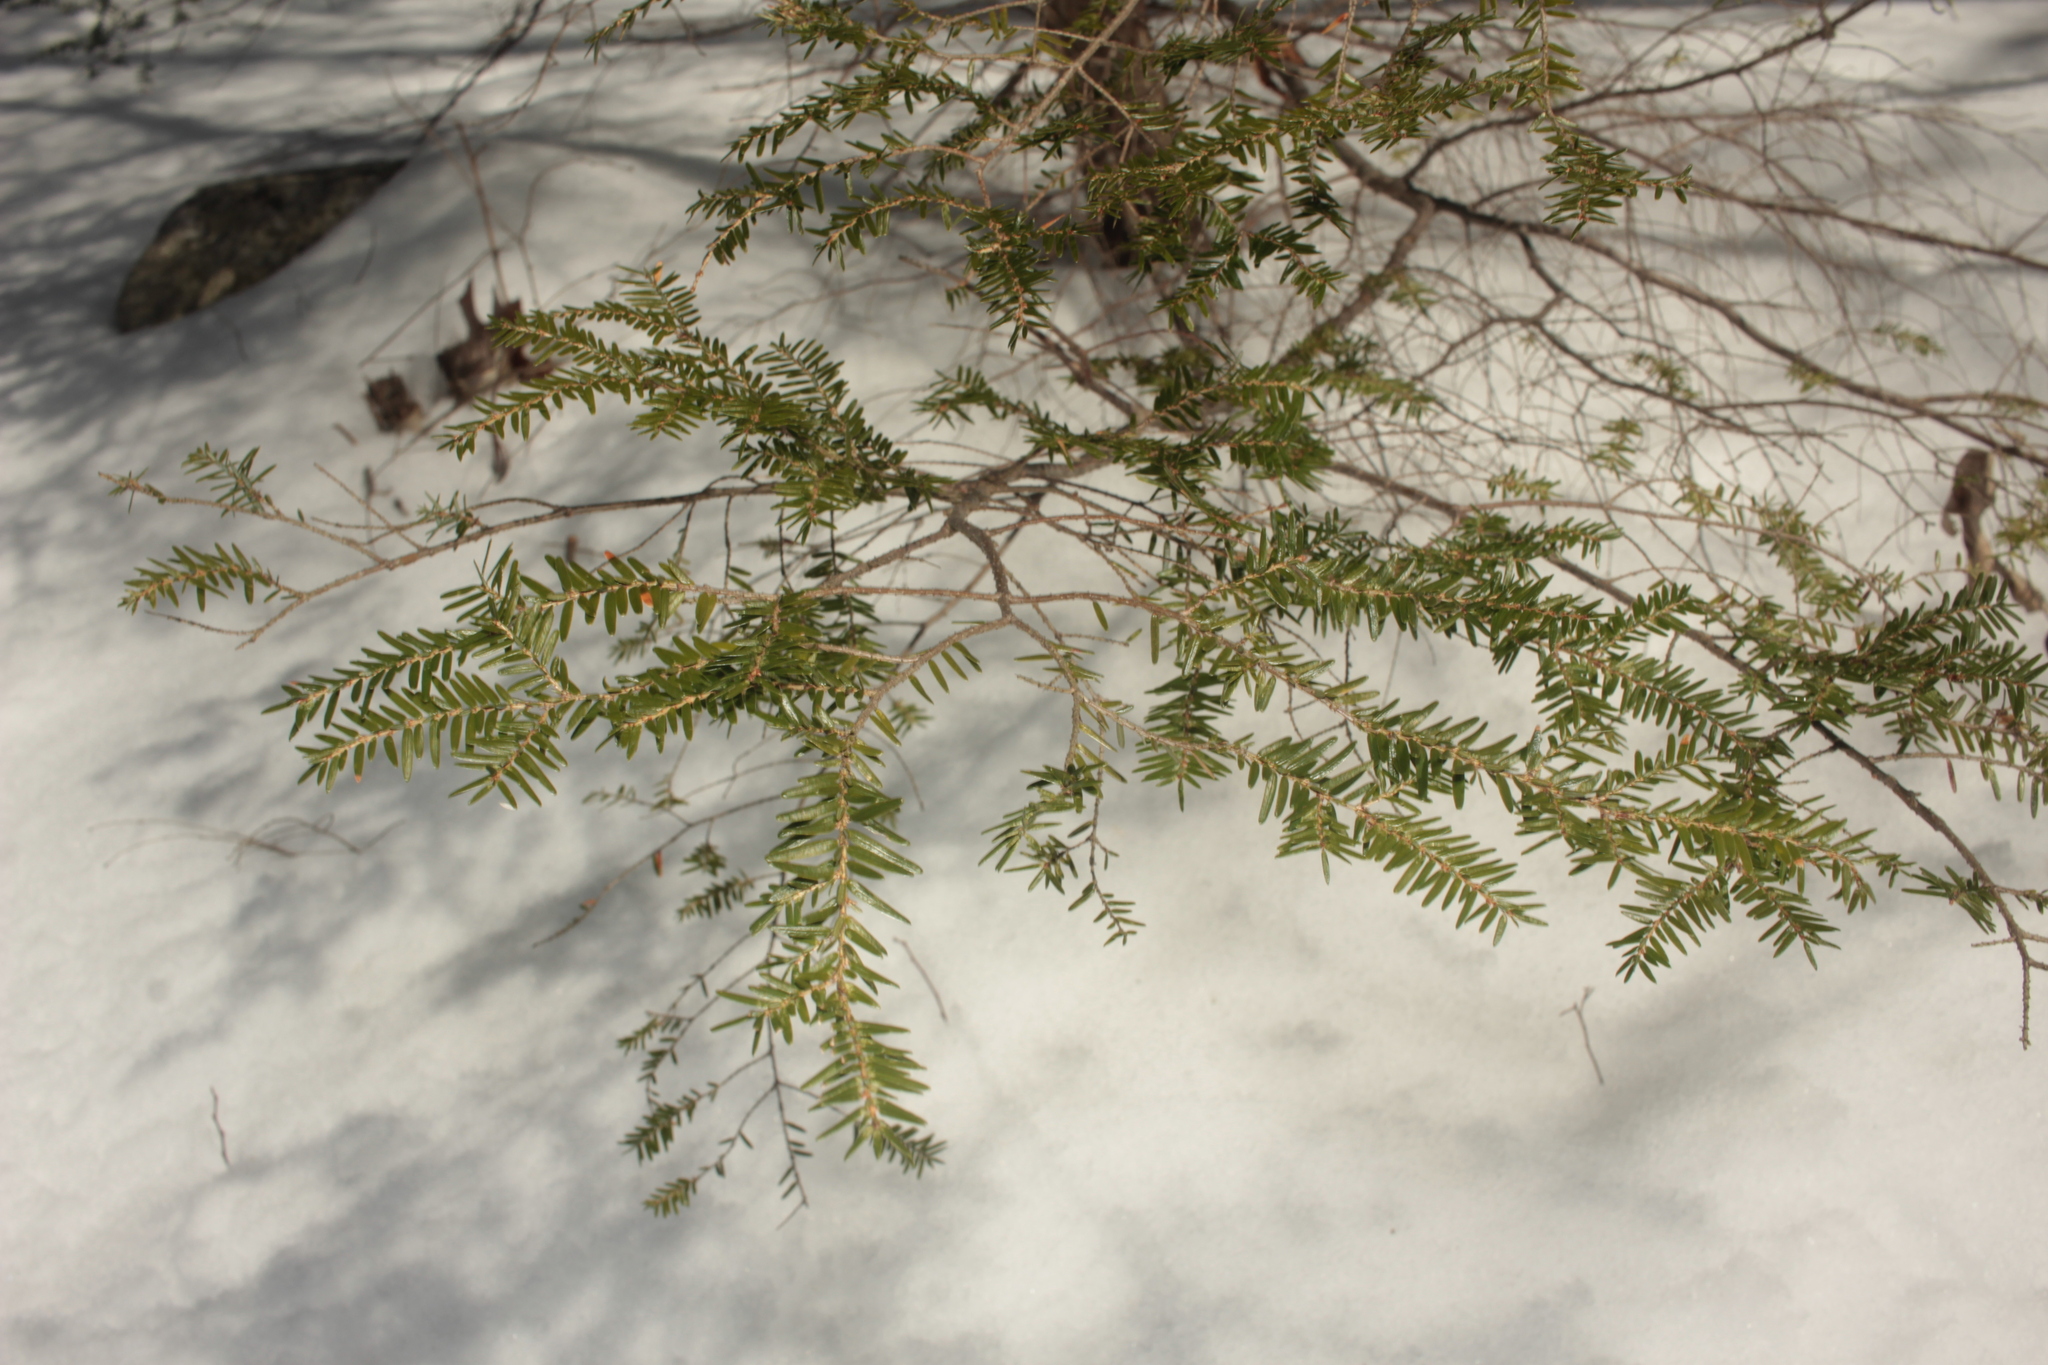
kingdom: Plantae
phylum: Tracheophyta
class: Pinopsida
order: Pinales
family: Pinaceae
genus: Tsuga
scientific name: Tsuga canadensis
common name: Eastern hemlock
